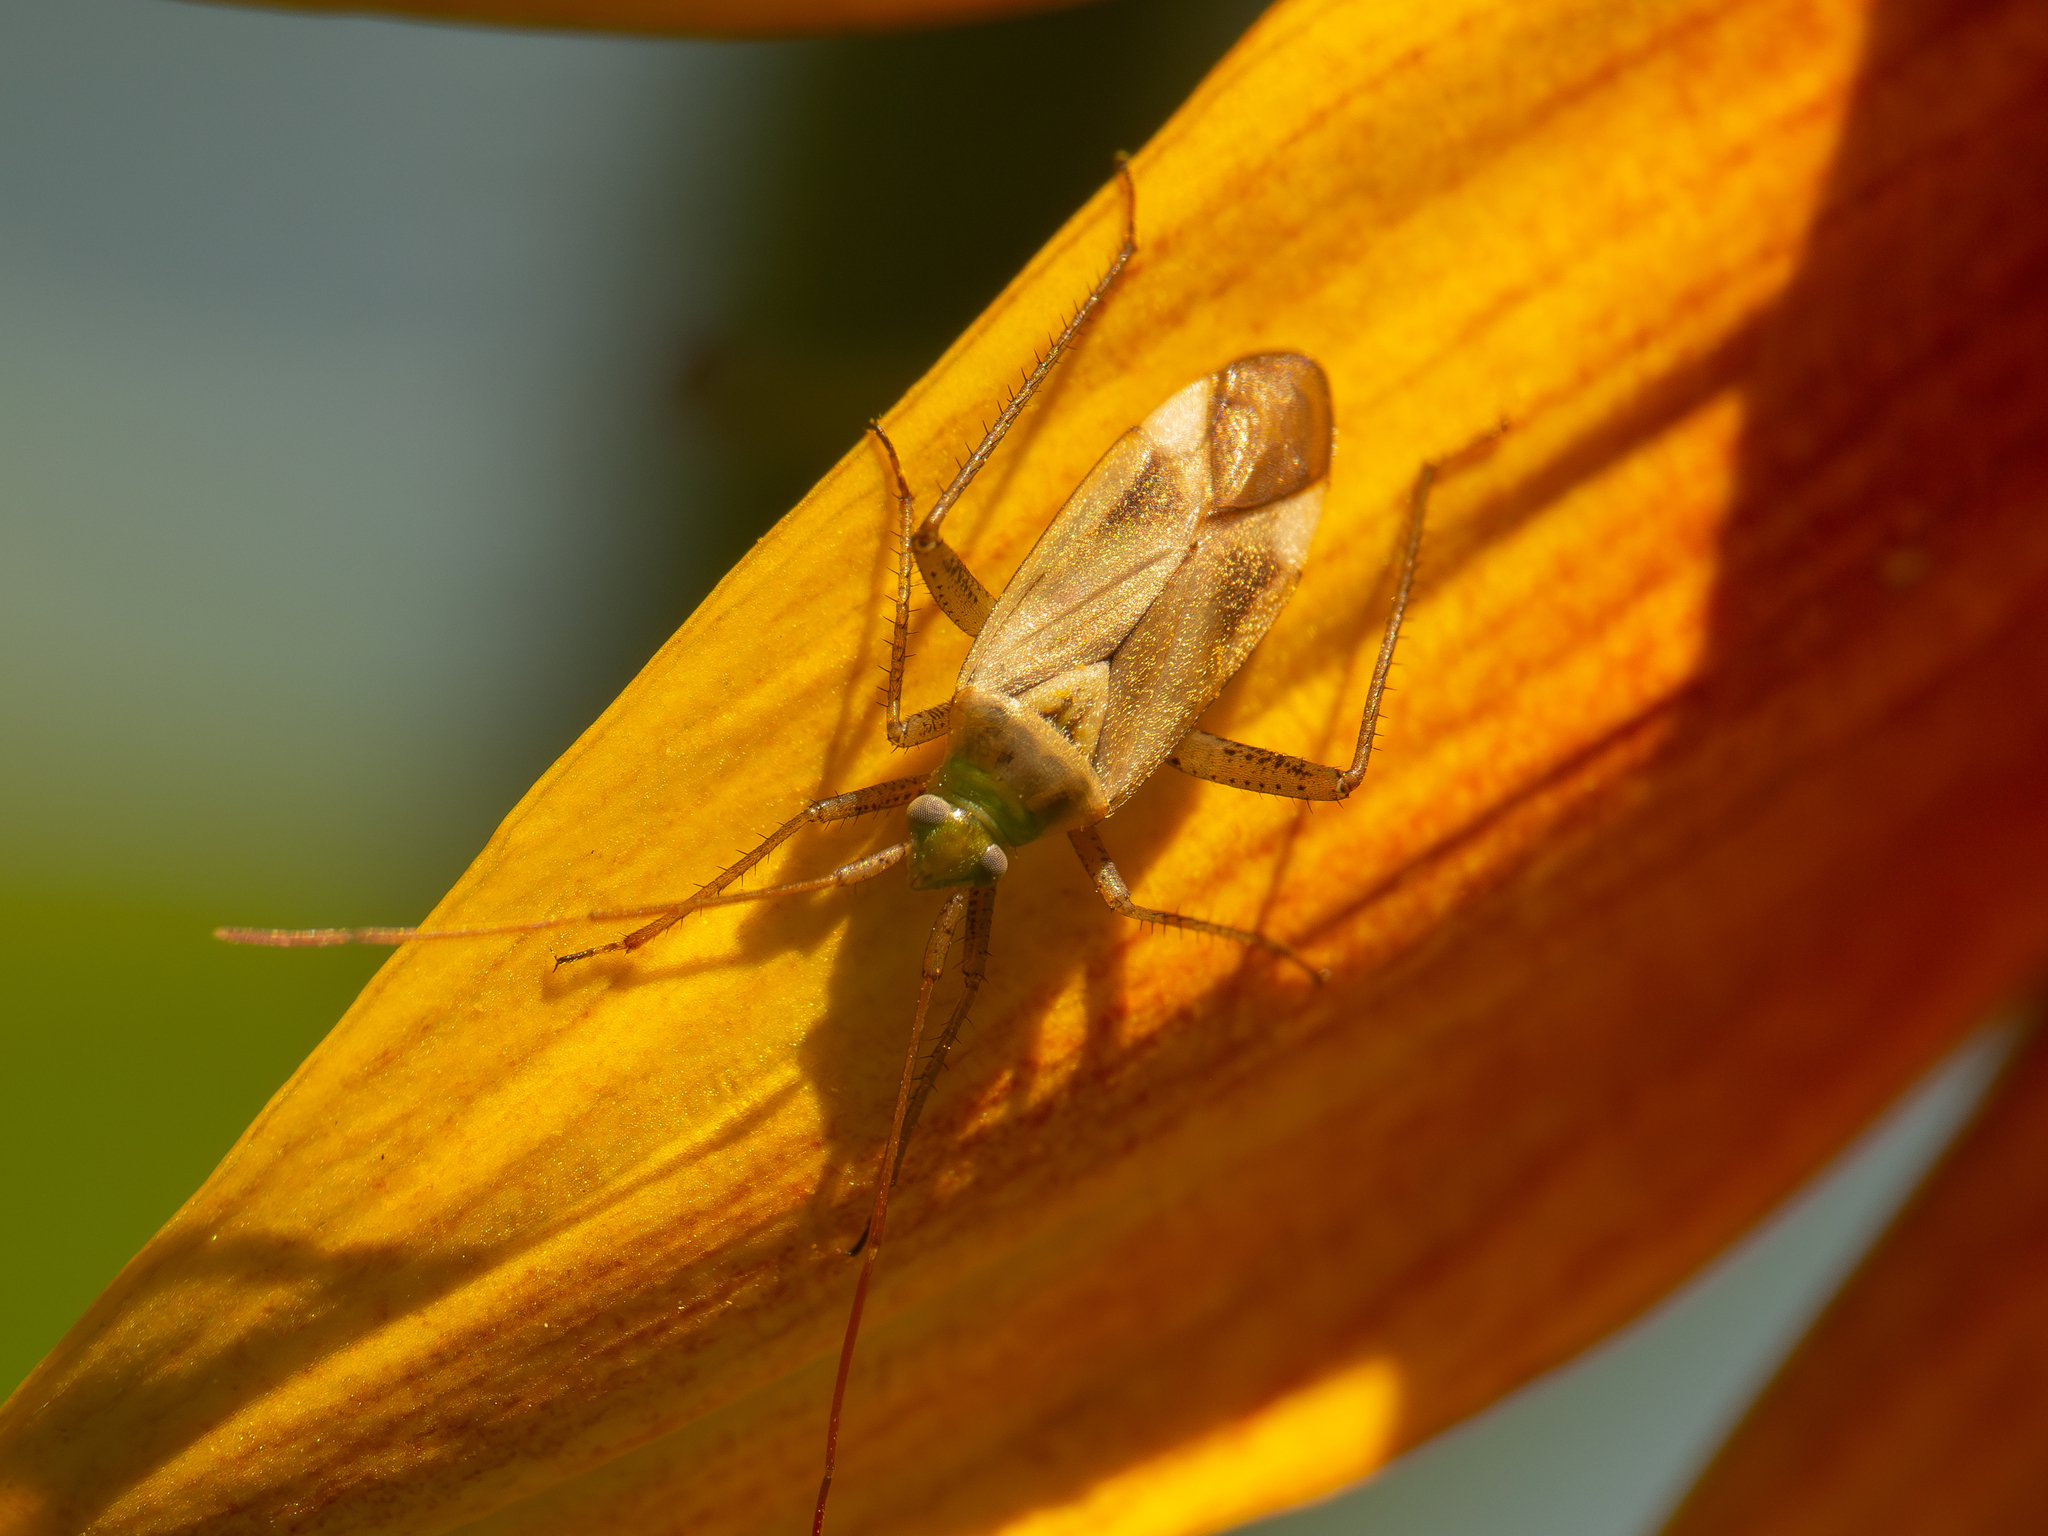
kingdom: Animalia
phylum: Arthropoda
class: Insecta
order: Hemiptera
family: Miridae
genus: Adelphocoris
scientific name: Adelphocoris lineolatus
